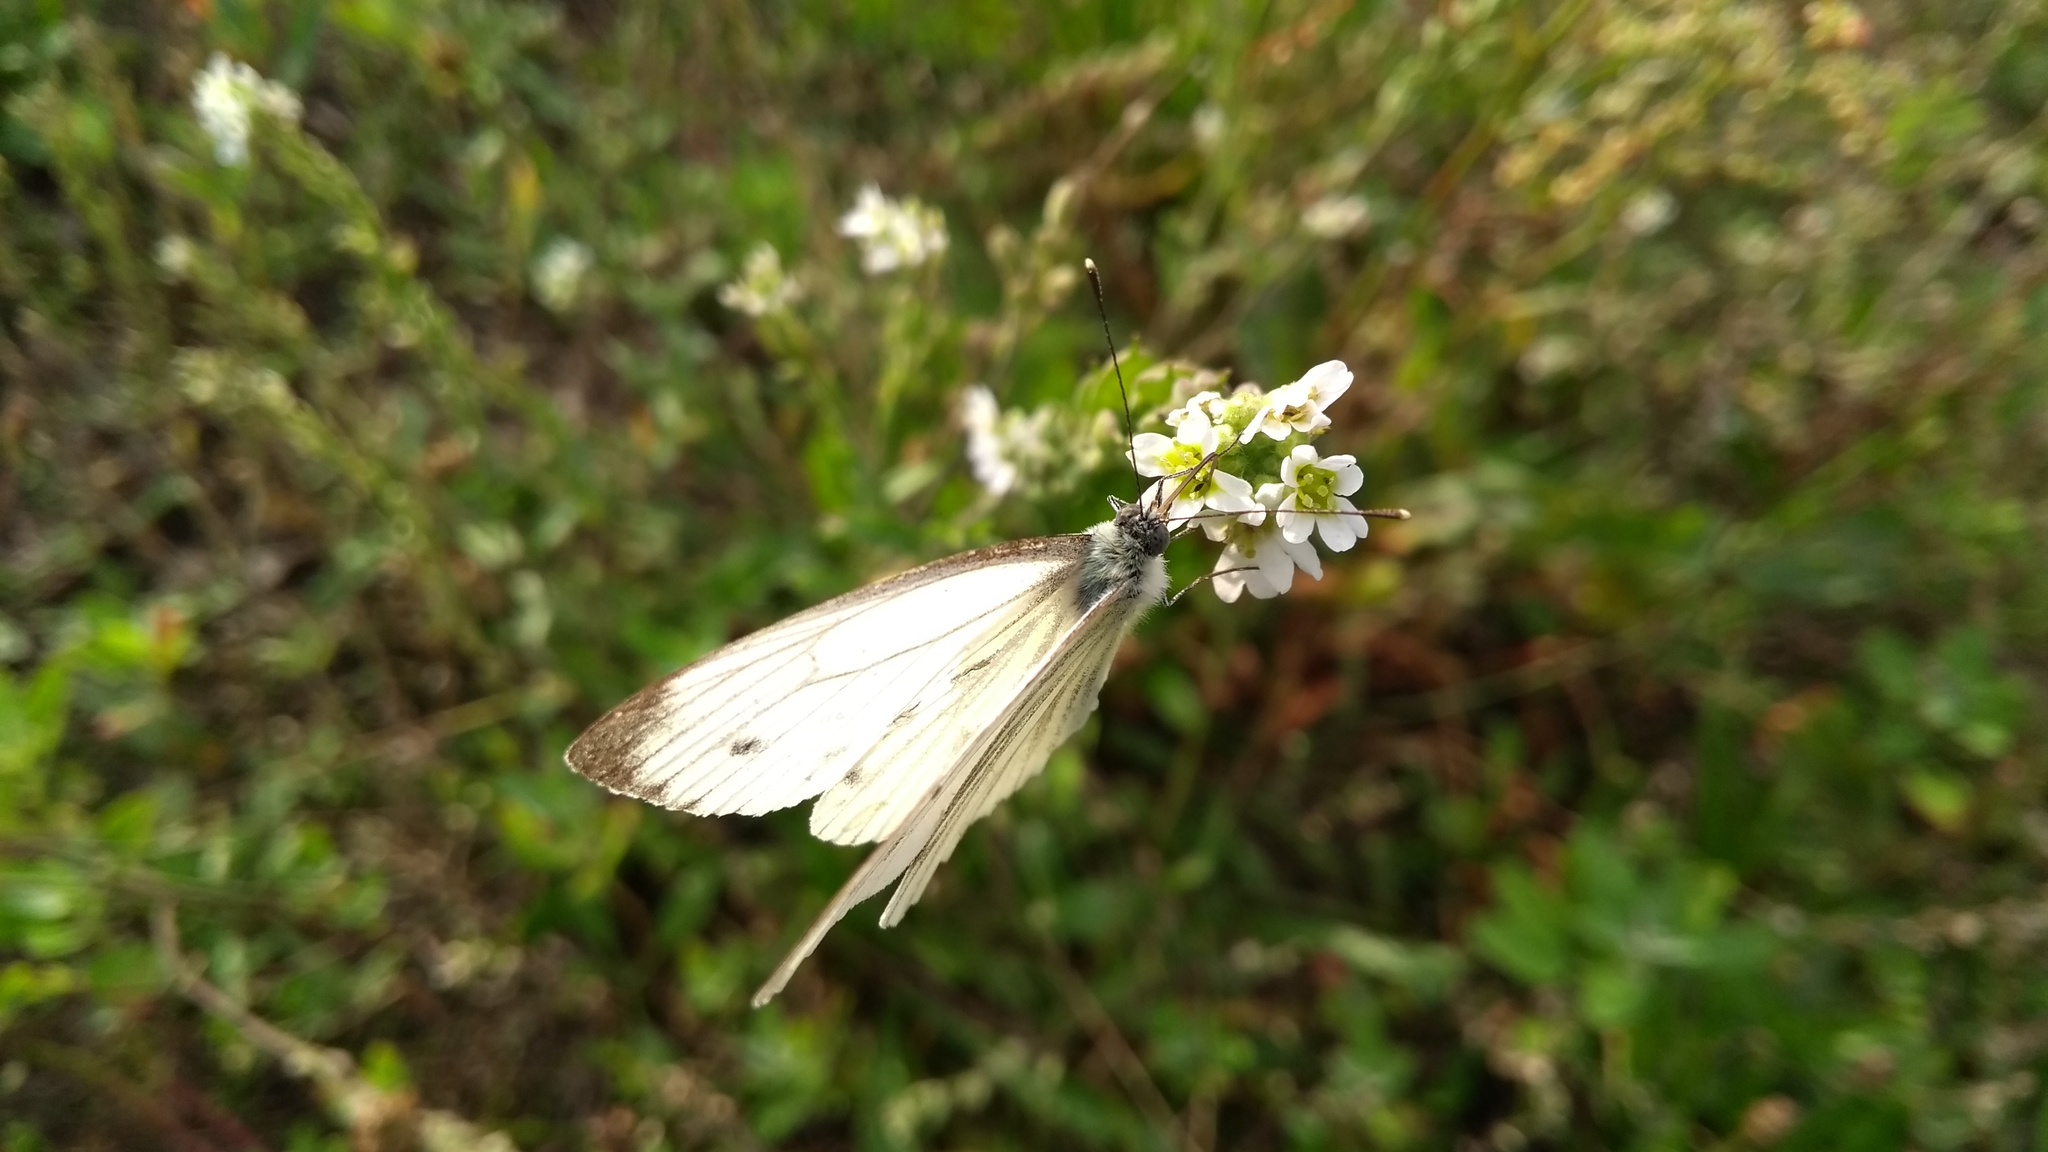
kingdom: Animalia
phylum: Arthropoda
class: Insecta
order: Lepidoptera
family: Pieridae
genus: Pieris
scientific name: Pieris napi
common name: Green-veined white
